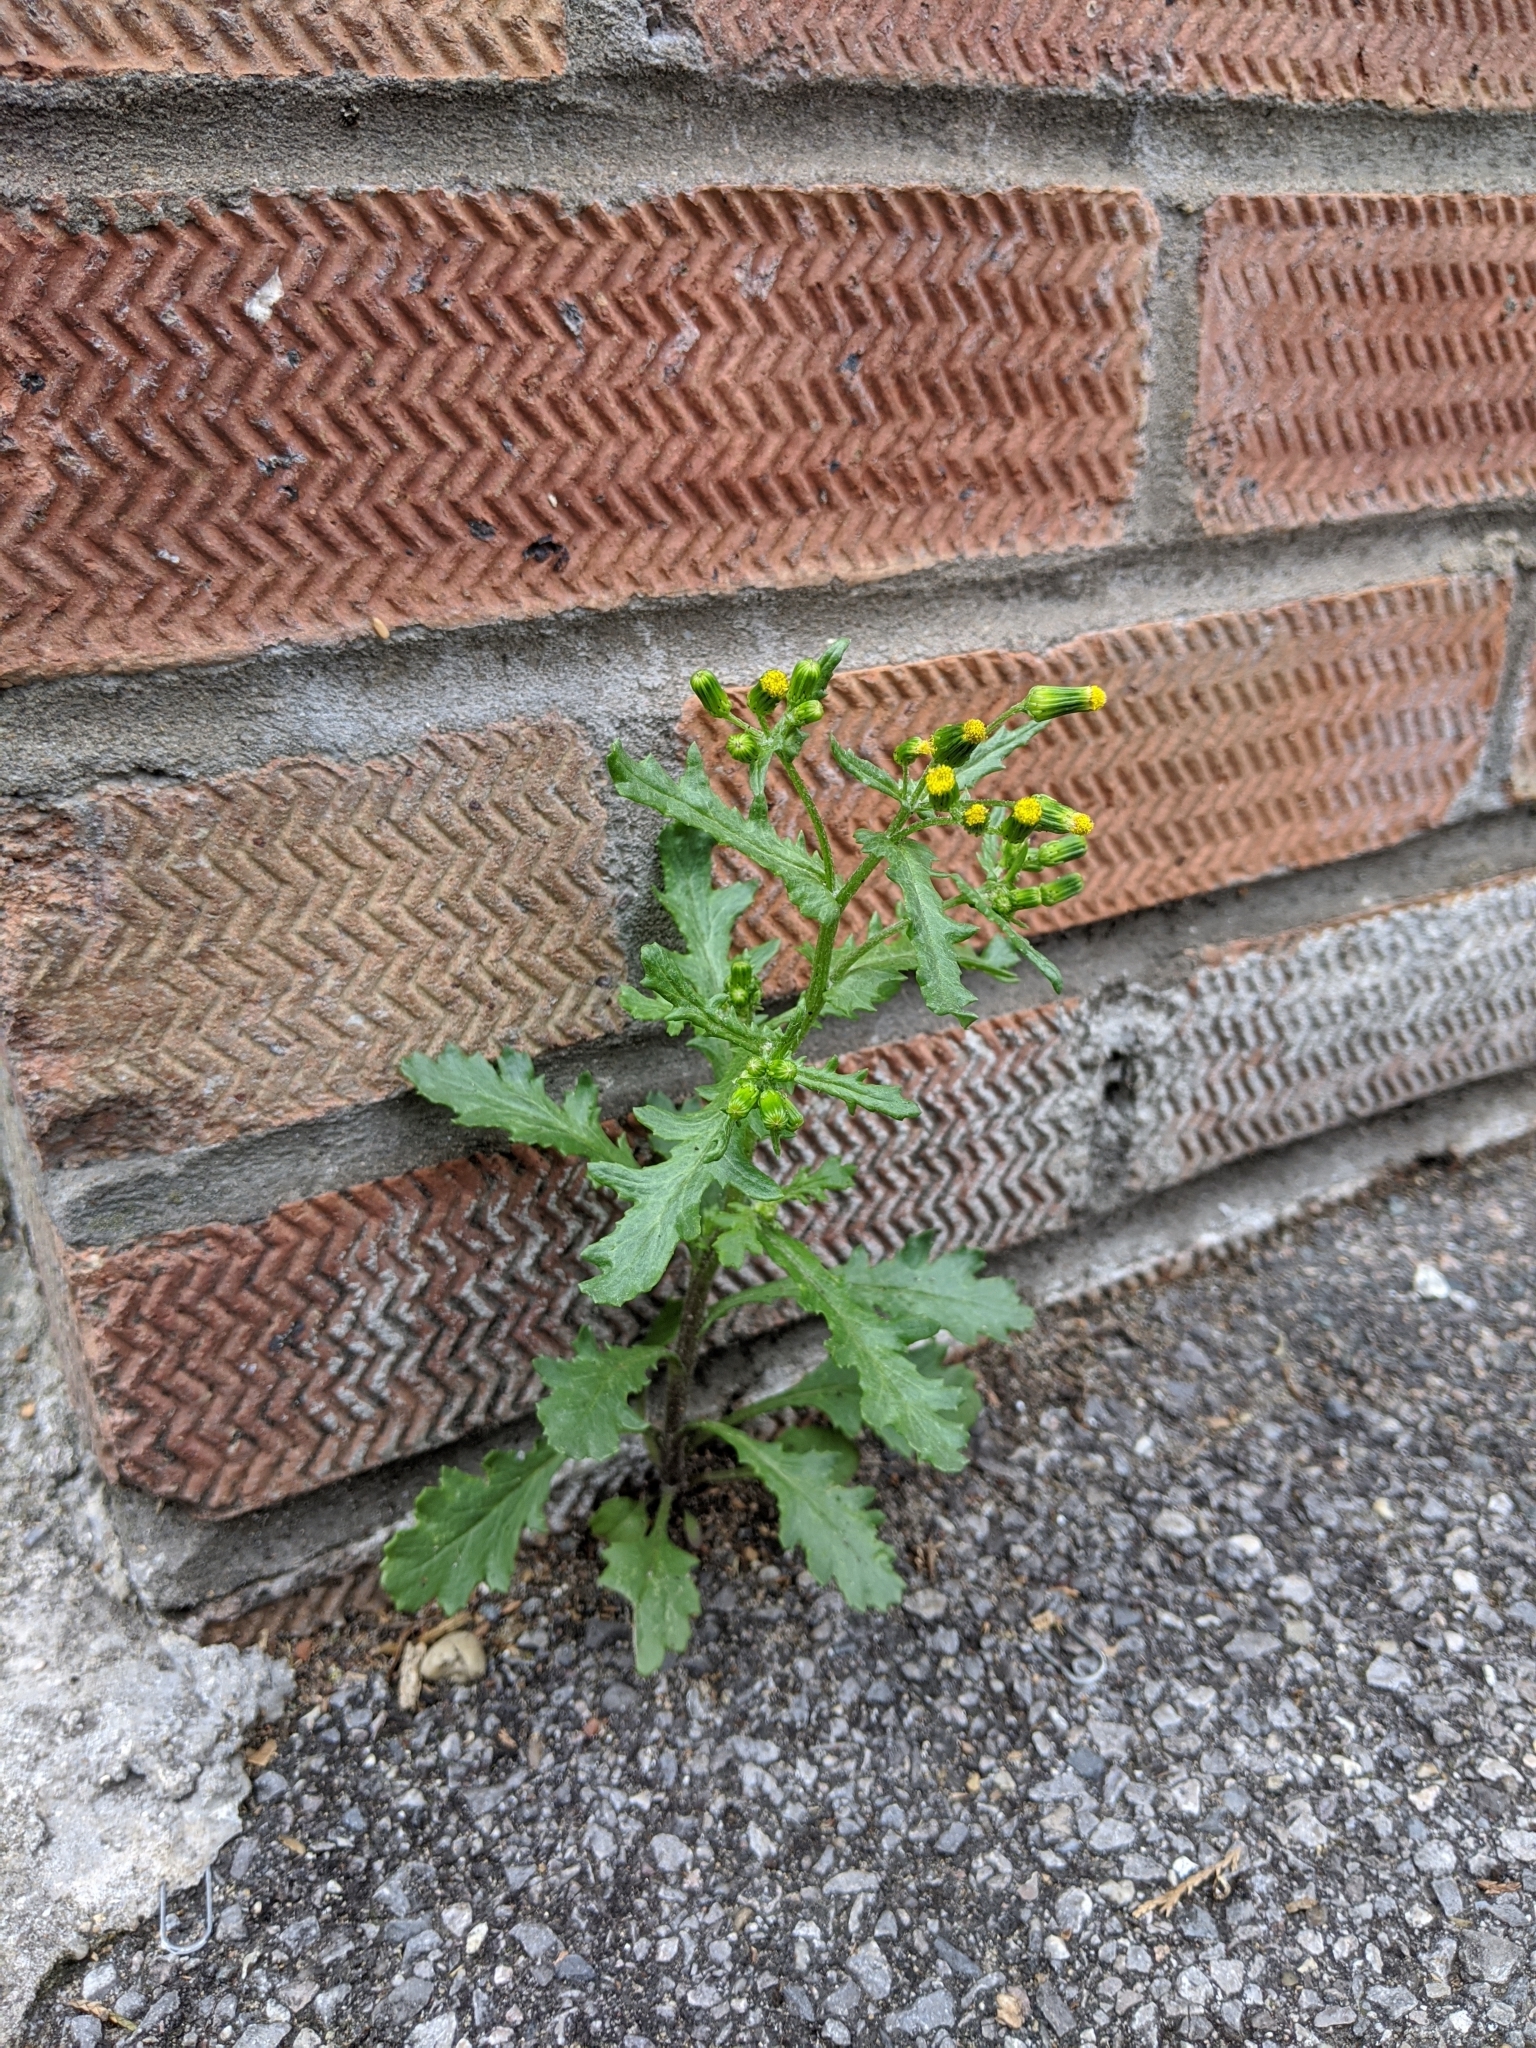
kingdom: Plantae
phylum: Tracheophyta
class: Magnoliopsida
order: Asterales
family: Asteraceae
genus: Senecio
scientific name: Senecio vulgaris
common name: Old-man-in-the-spring
